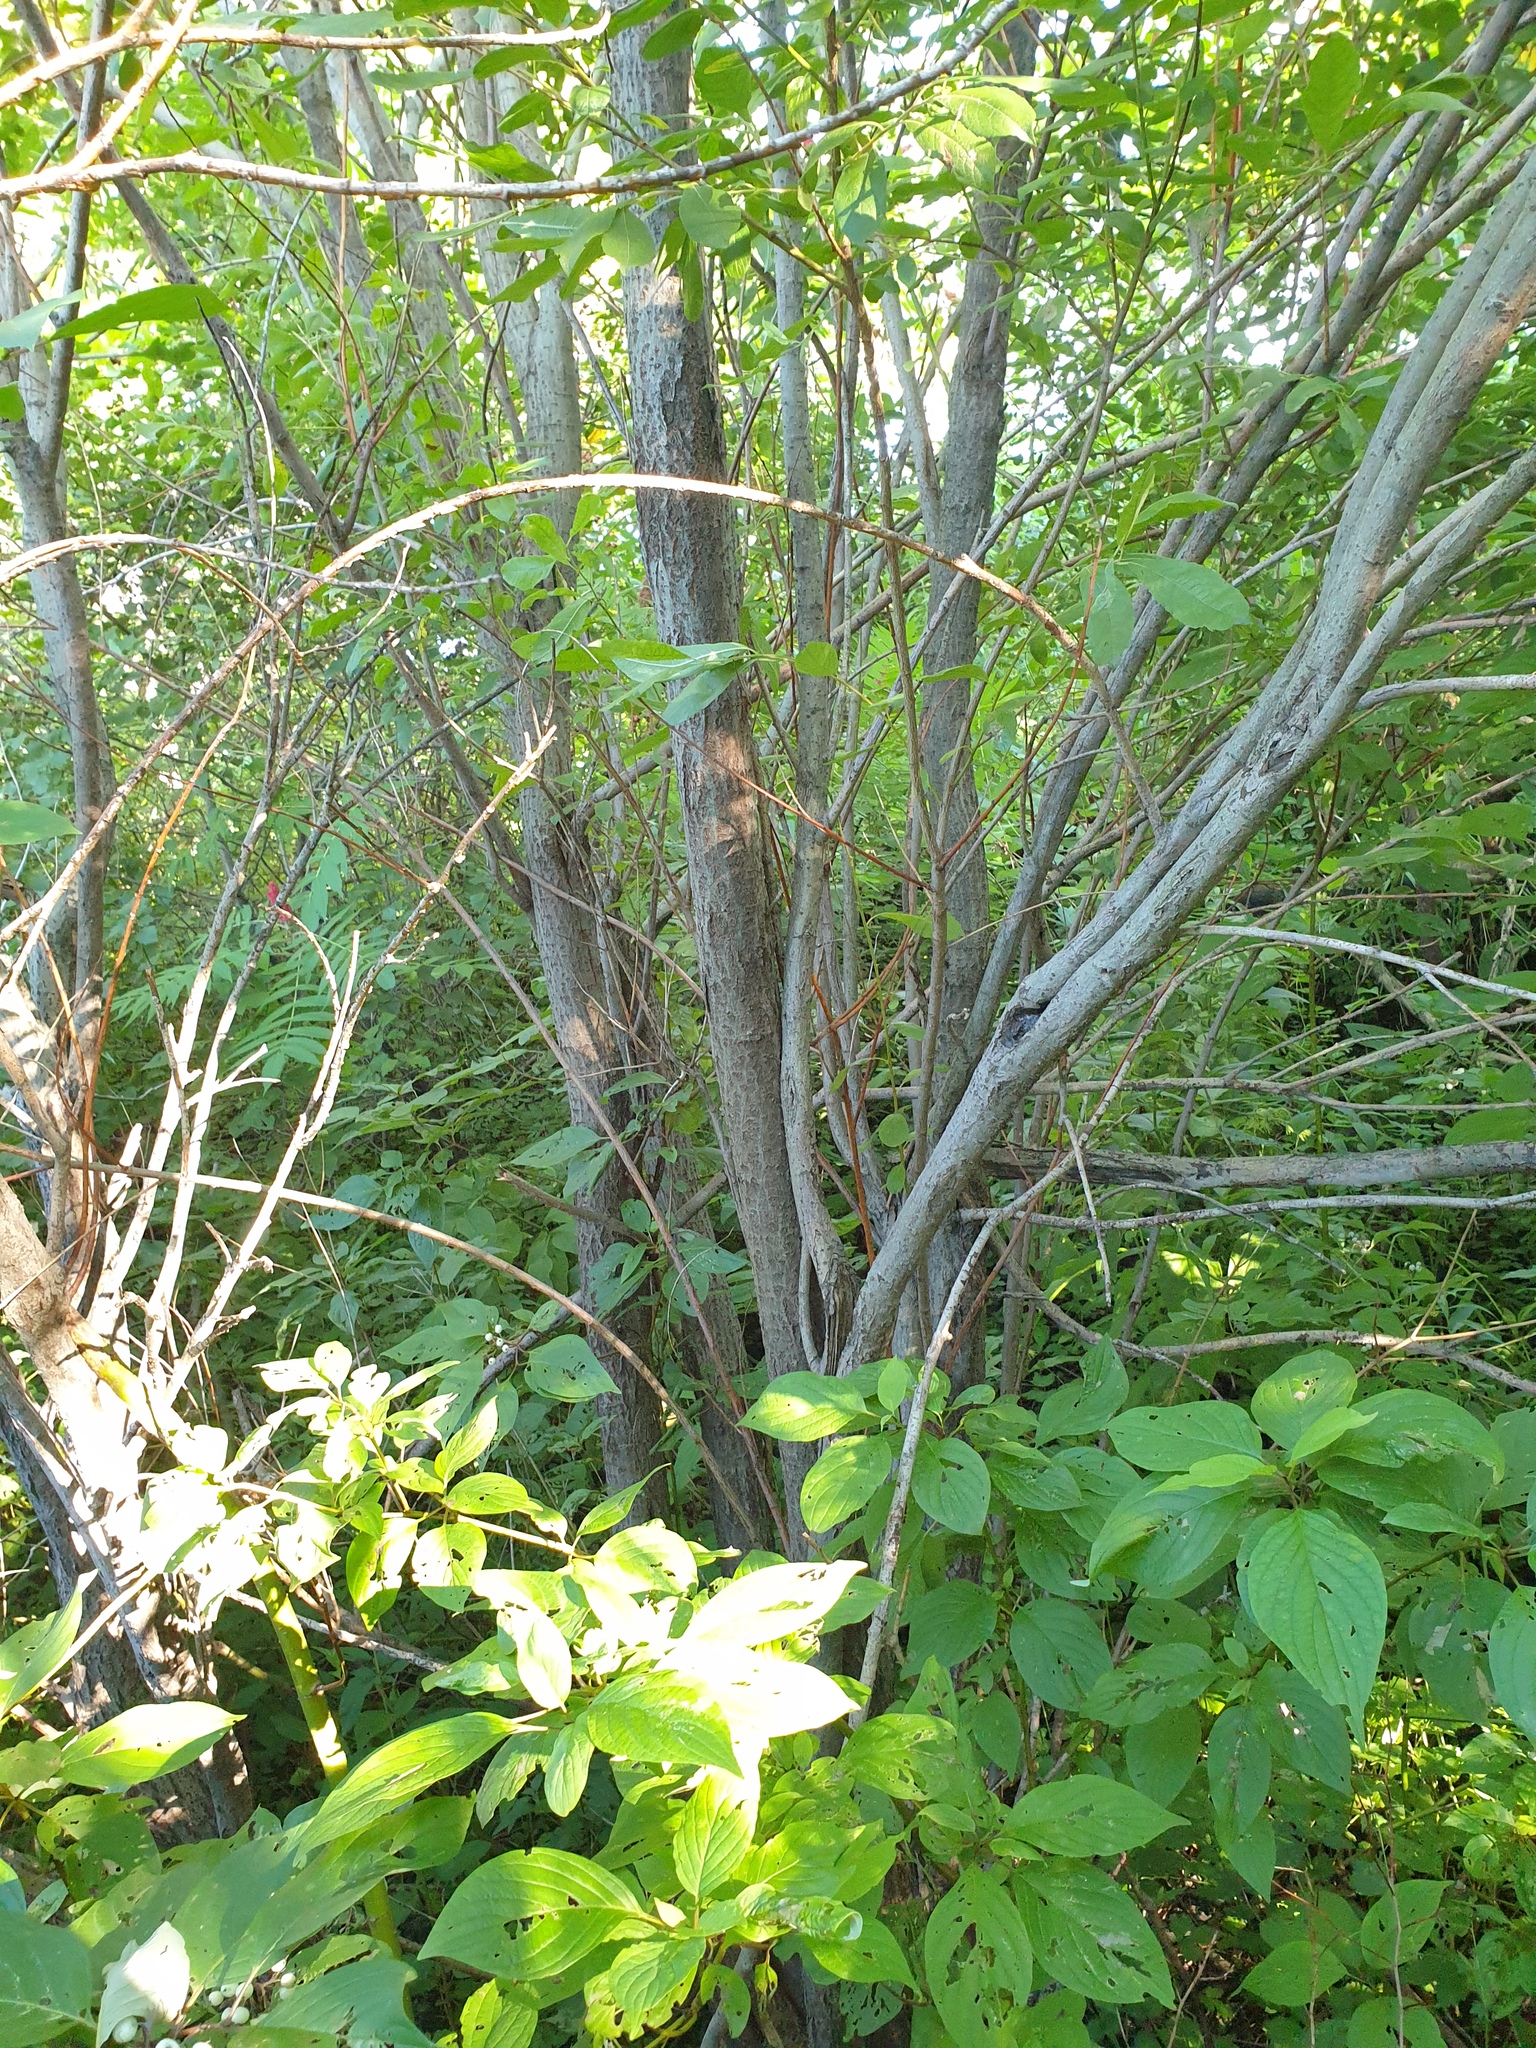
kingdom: Plantae
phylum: Tracheophyta
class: Magnoliopsida
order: Malpighiales
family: Salicaceae
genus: Salix
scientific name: Salix bebbiana
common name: Bebb's willow
